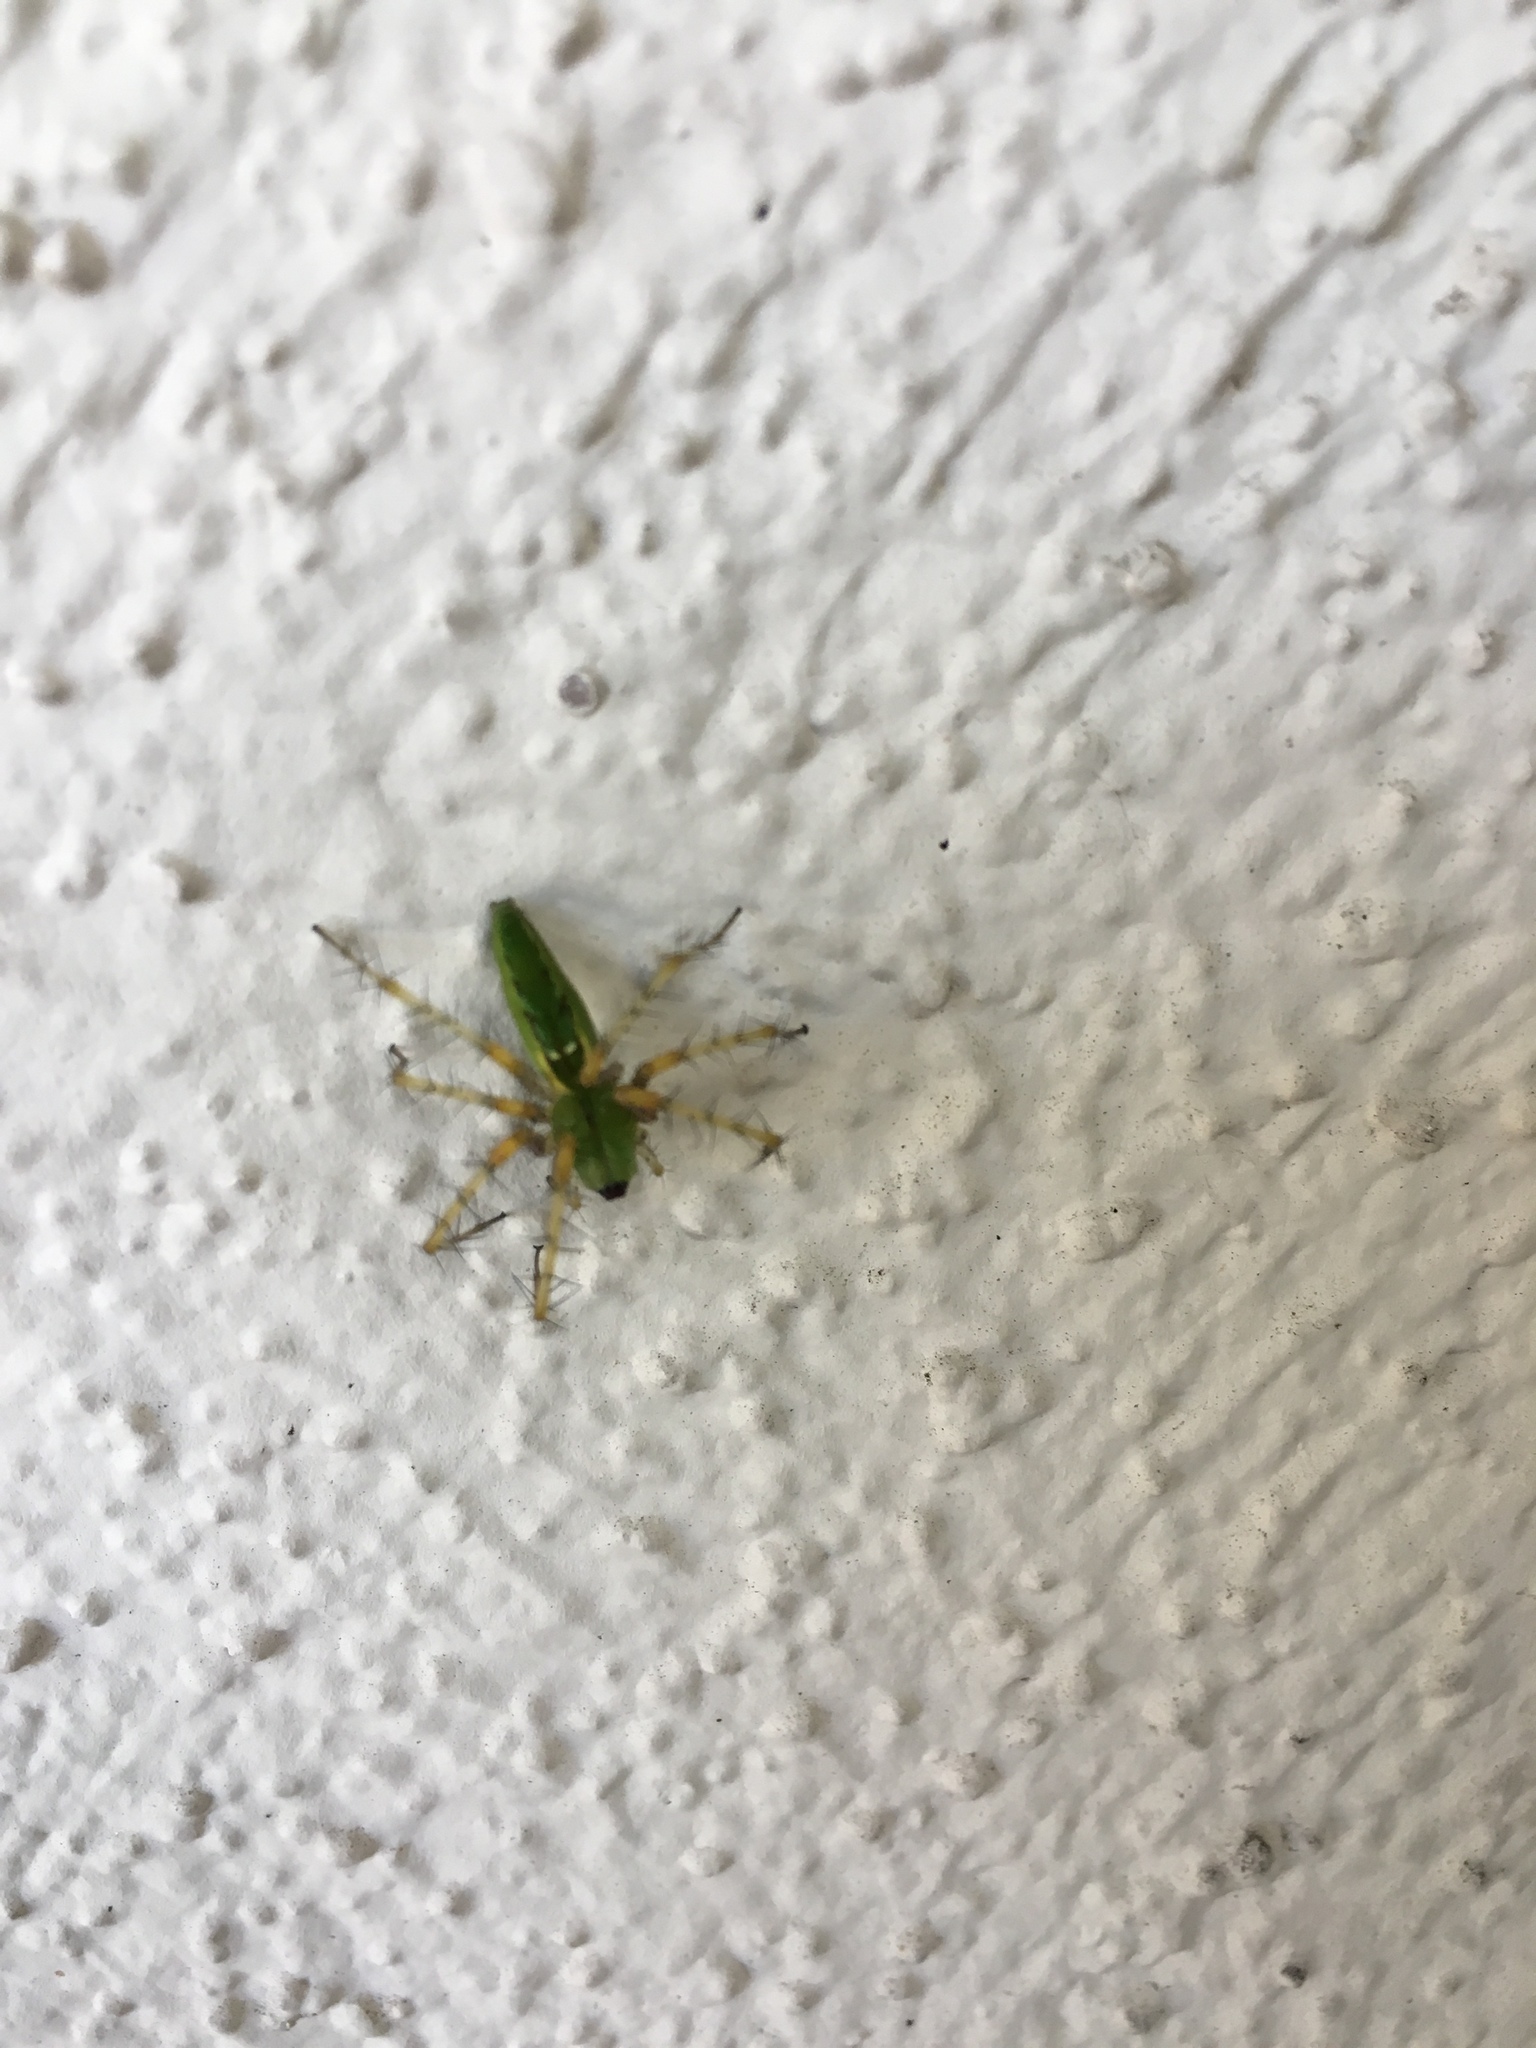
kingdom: Animalia
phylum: Arthropoda
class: Arachnida
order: Araneae
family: Oxyopidae
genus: Peucetia
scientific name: Peucetia viridans
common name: Lynx spiders
